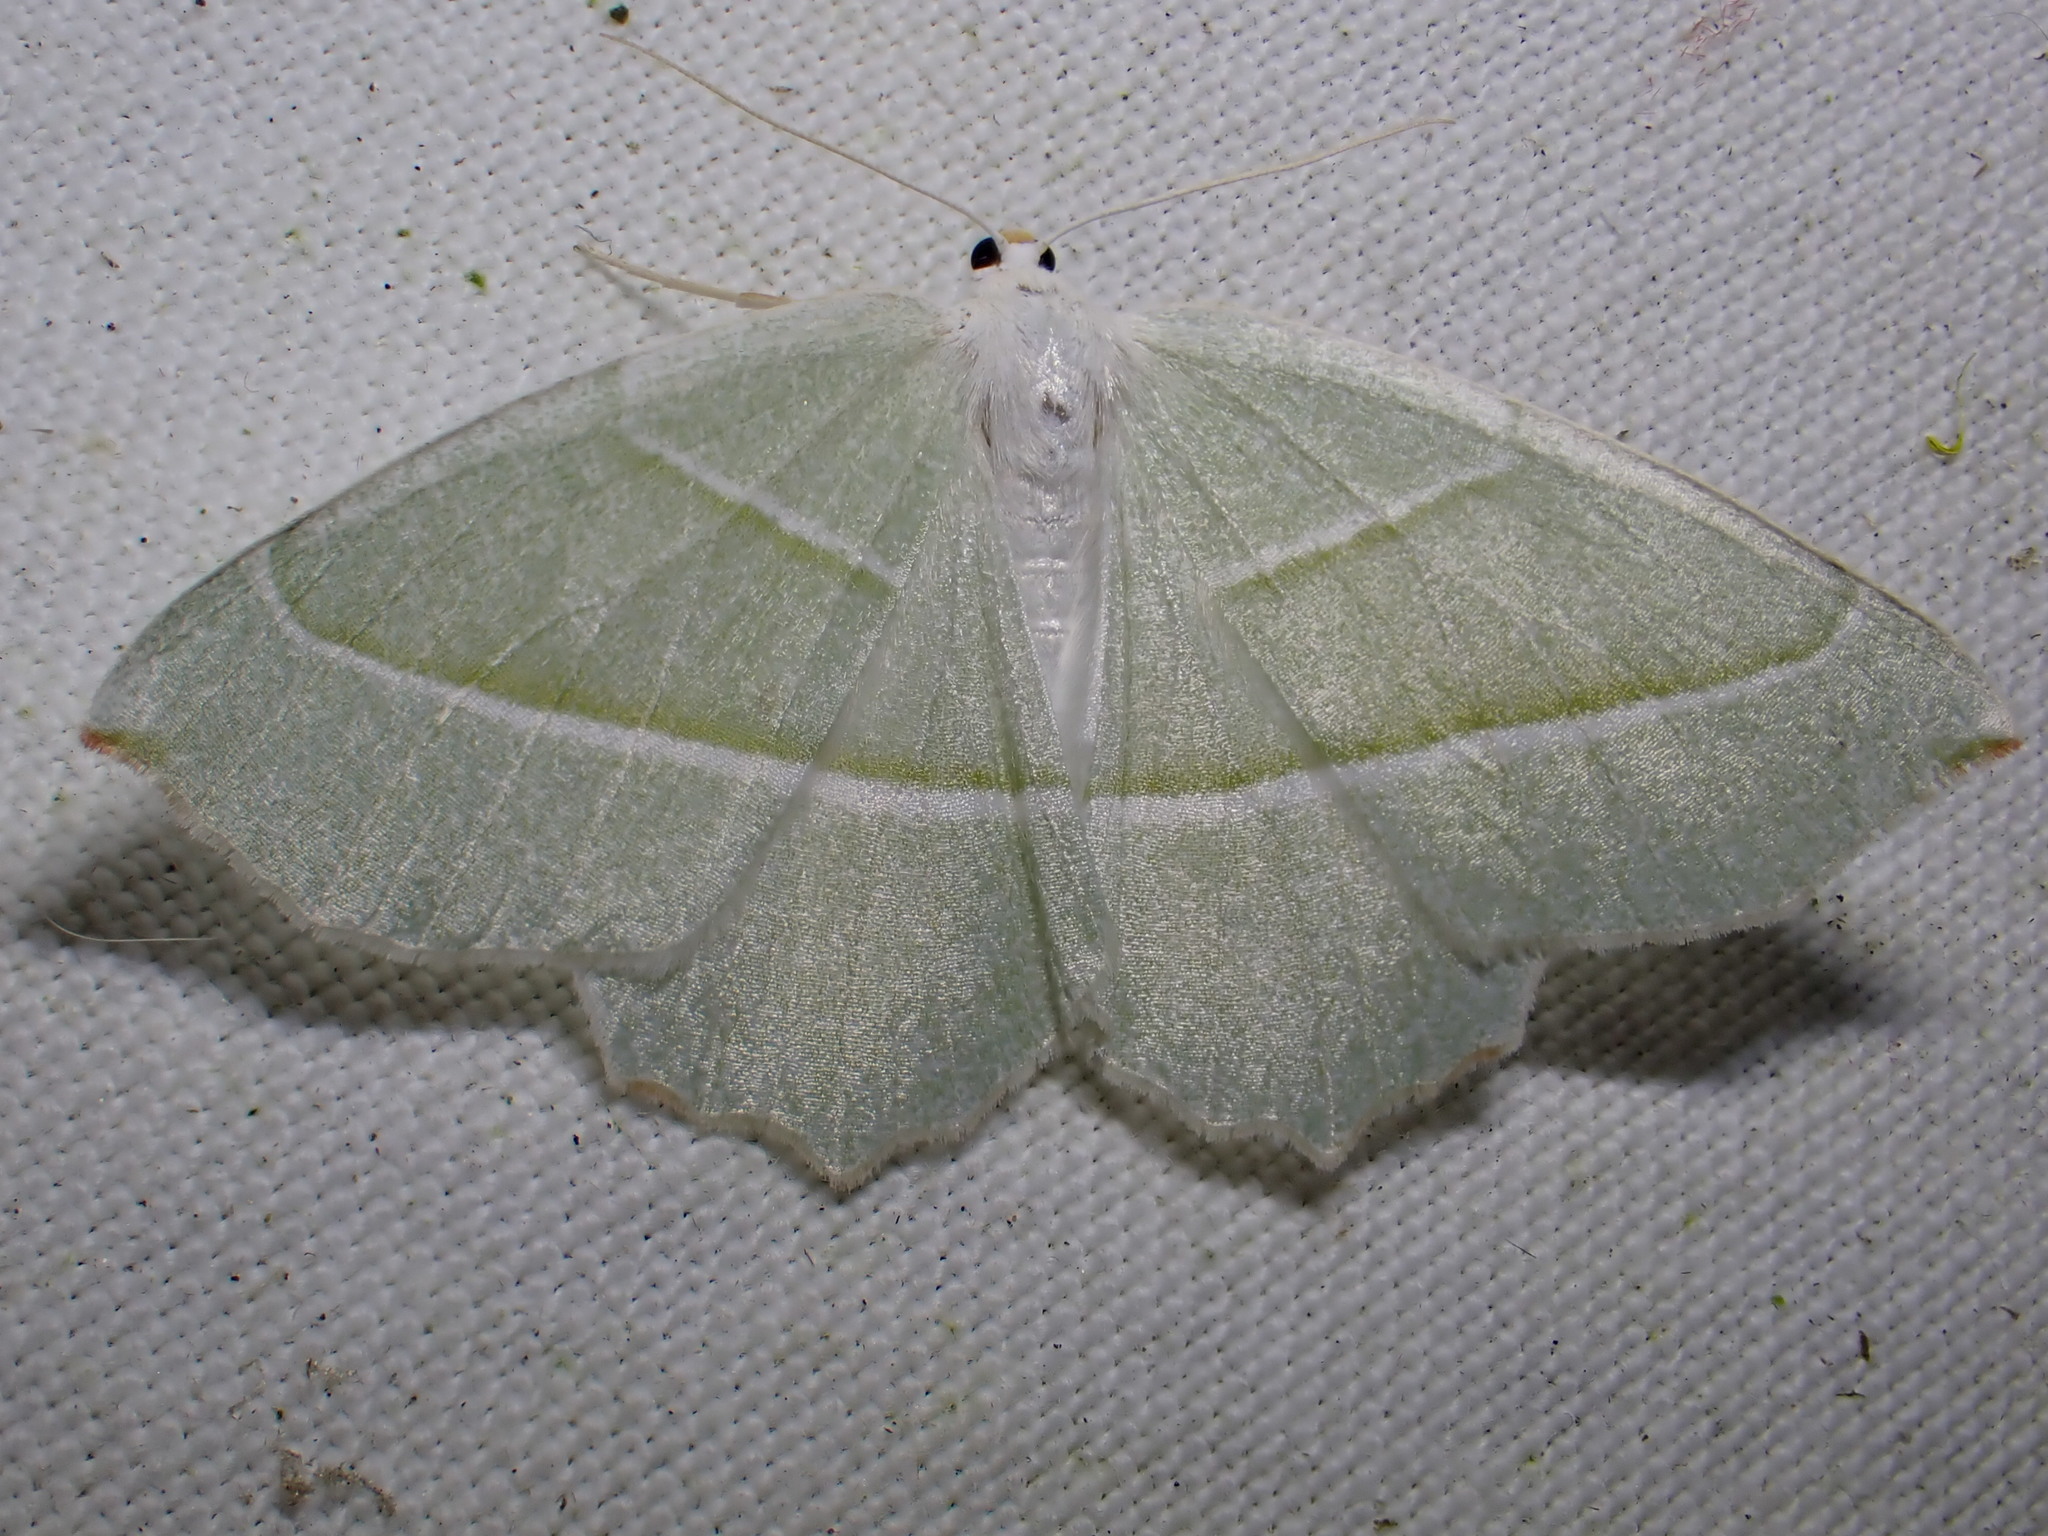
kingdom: Animalia
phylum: Arthropoda
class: Insecta
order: Lepidoptera
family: Geometridae
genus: Campaea
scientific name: Campaea margaritaria
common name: Light emerald
